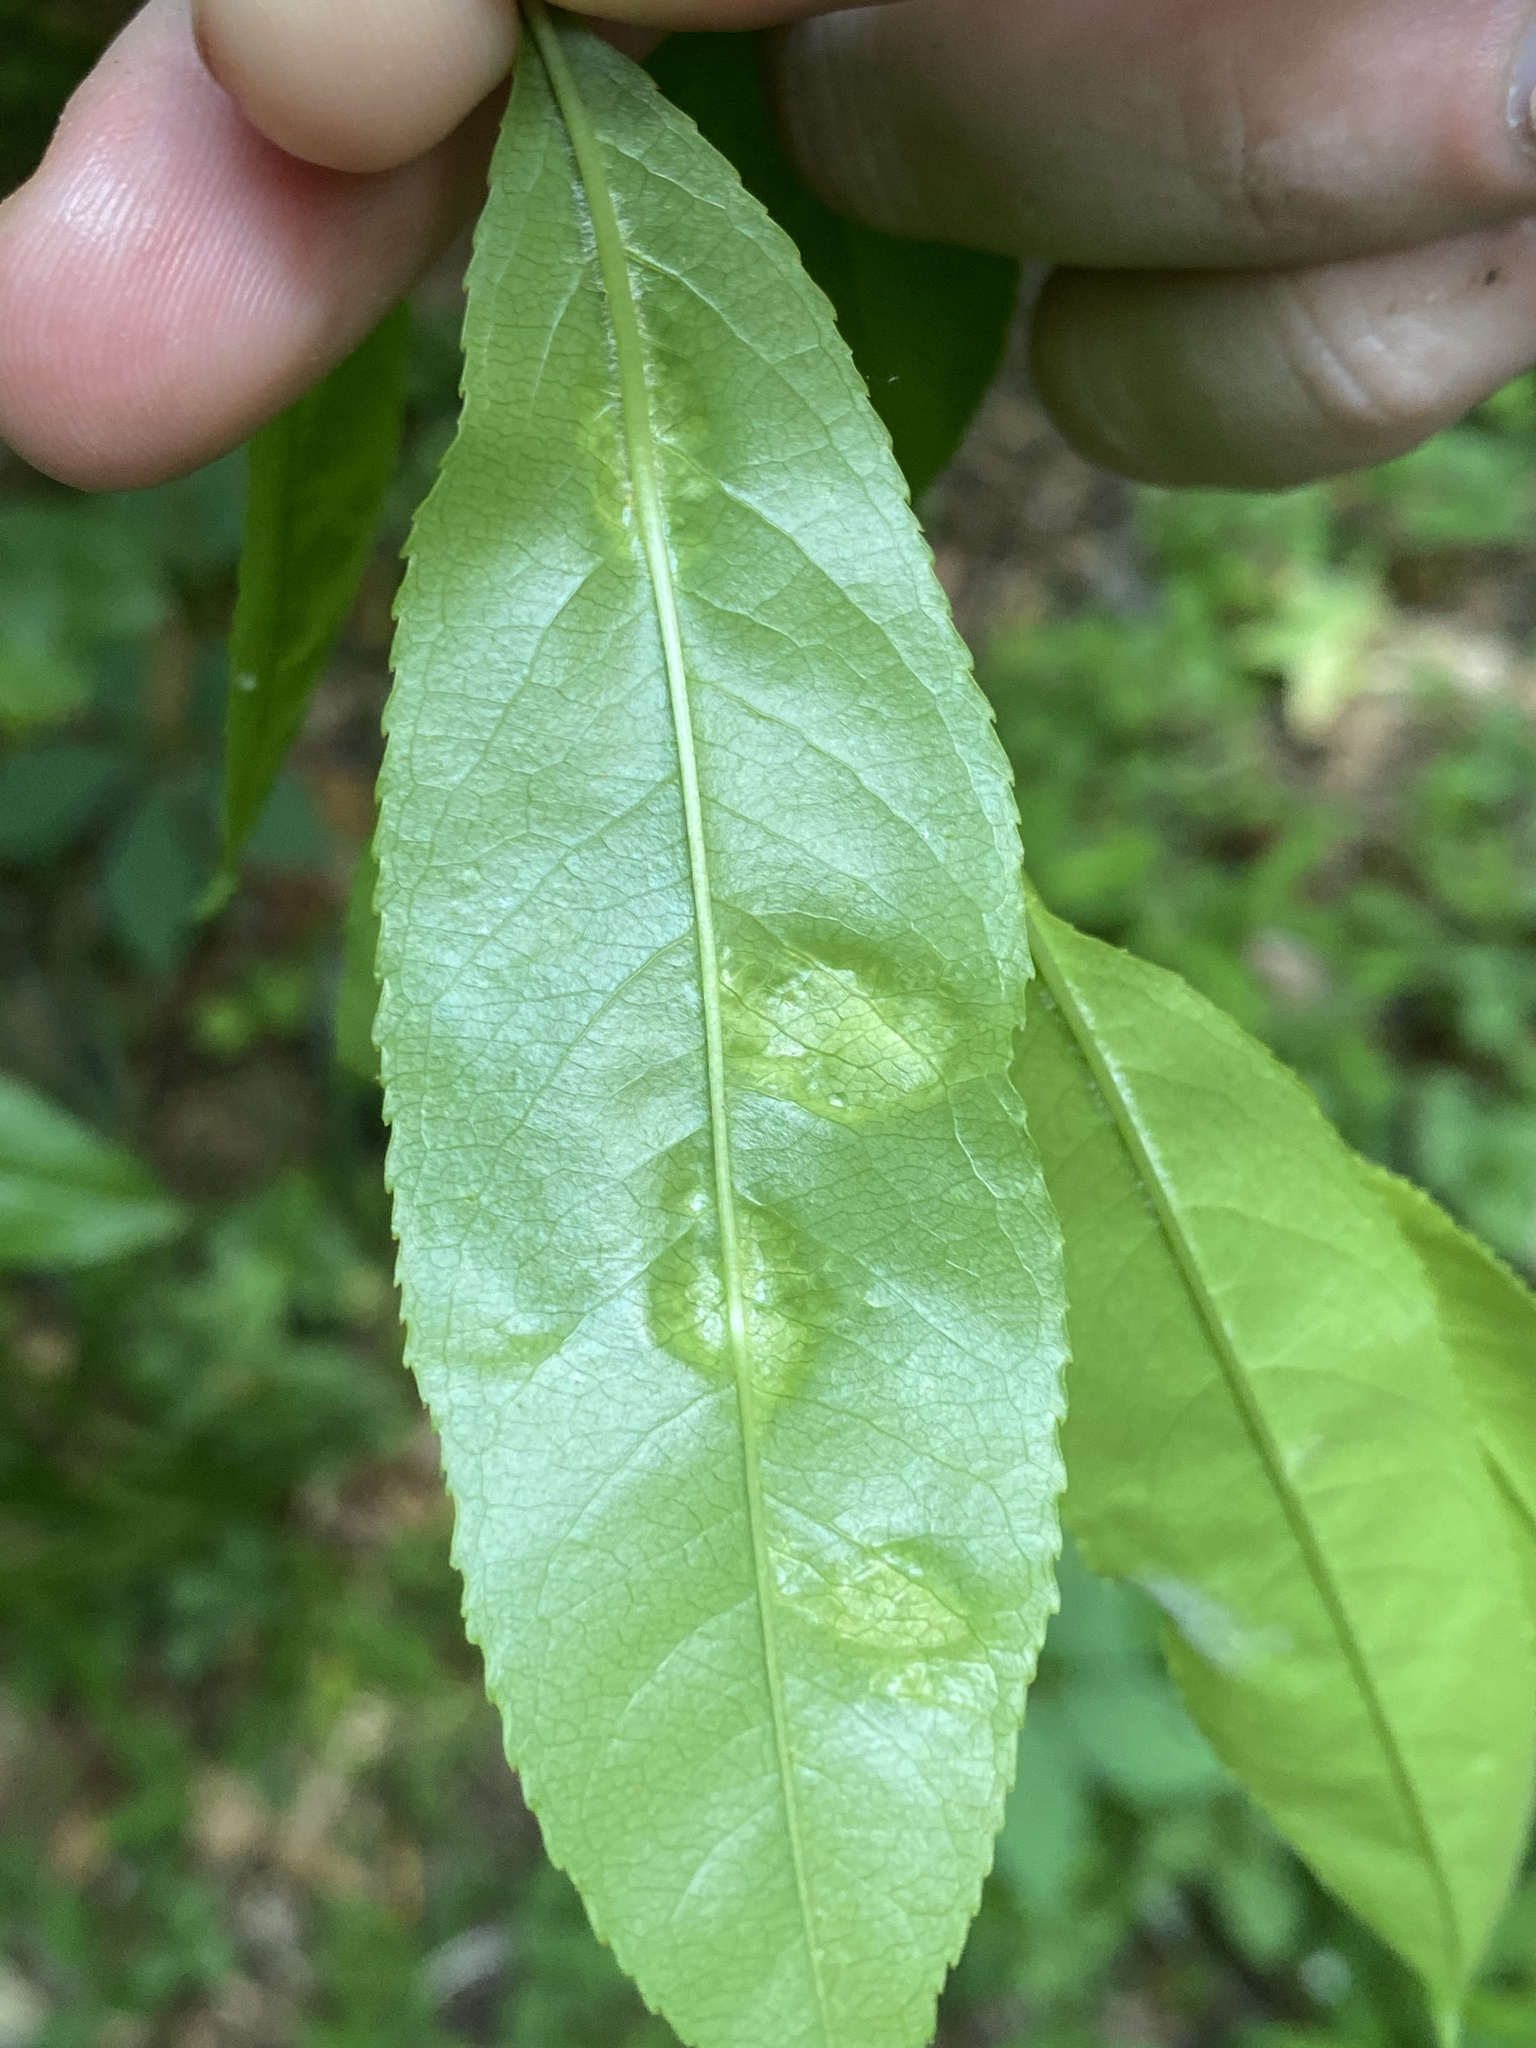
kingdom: Fungi
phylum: Ascomycota
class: Taphrinomycetes
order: Taphrinales
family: Taphrinaceae
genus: Taphrina
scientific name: Taphrina farlowii
